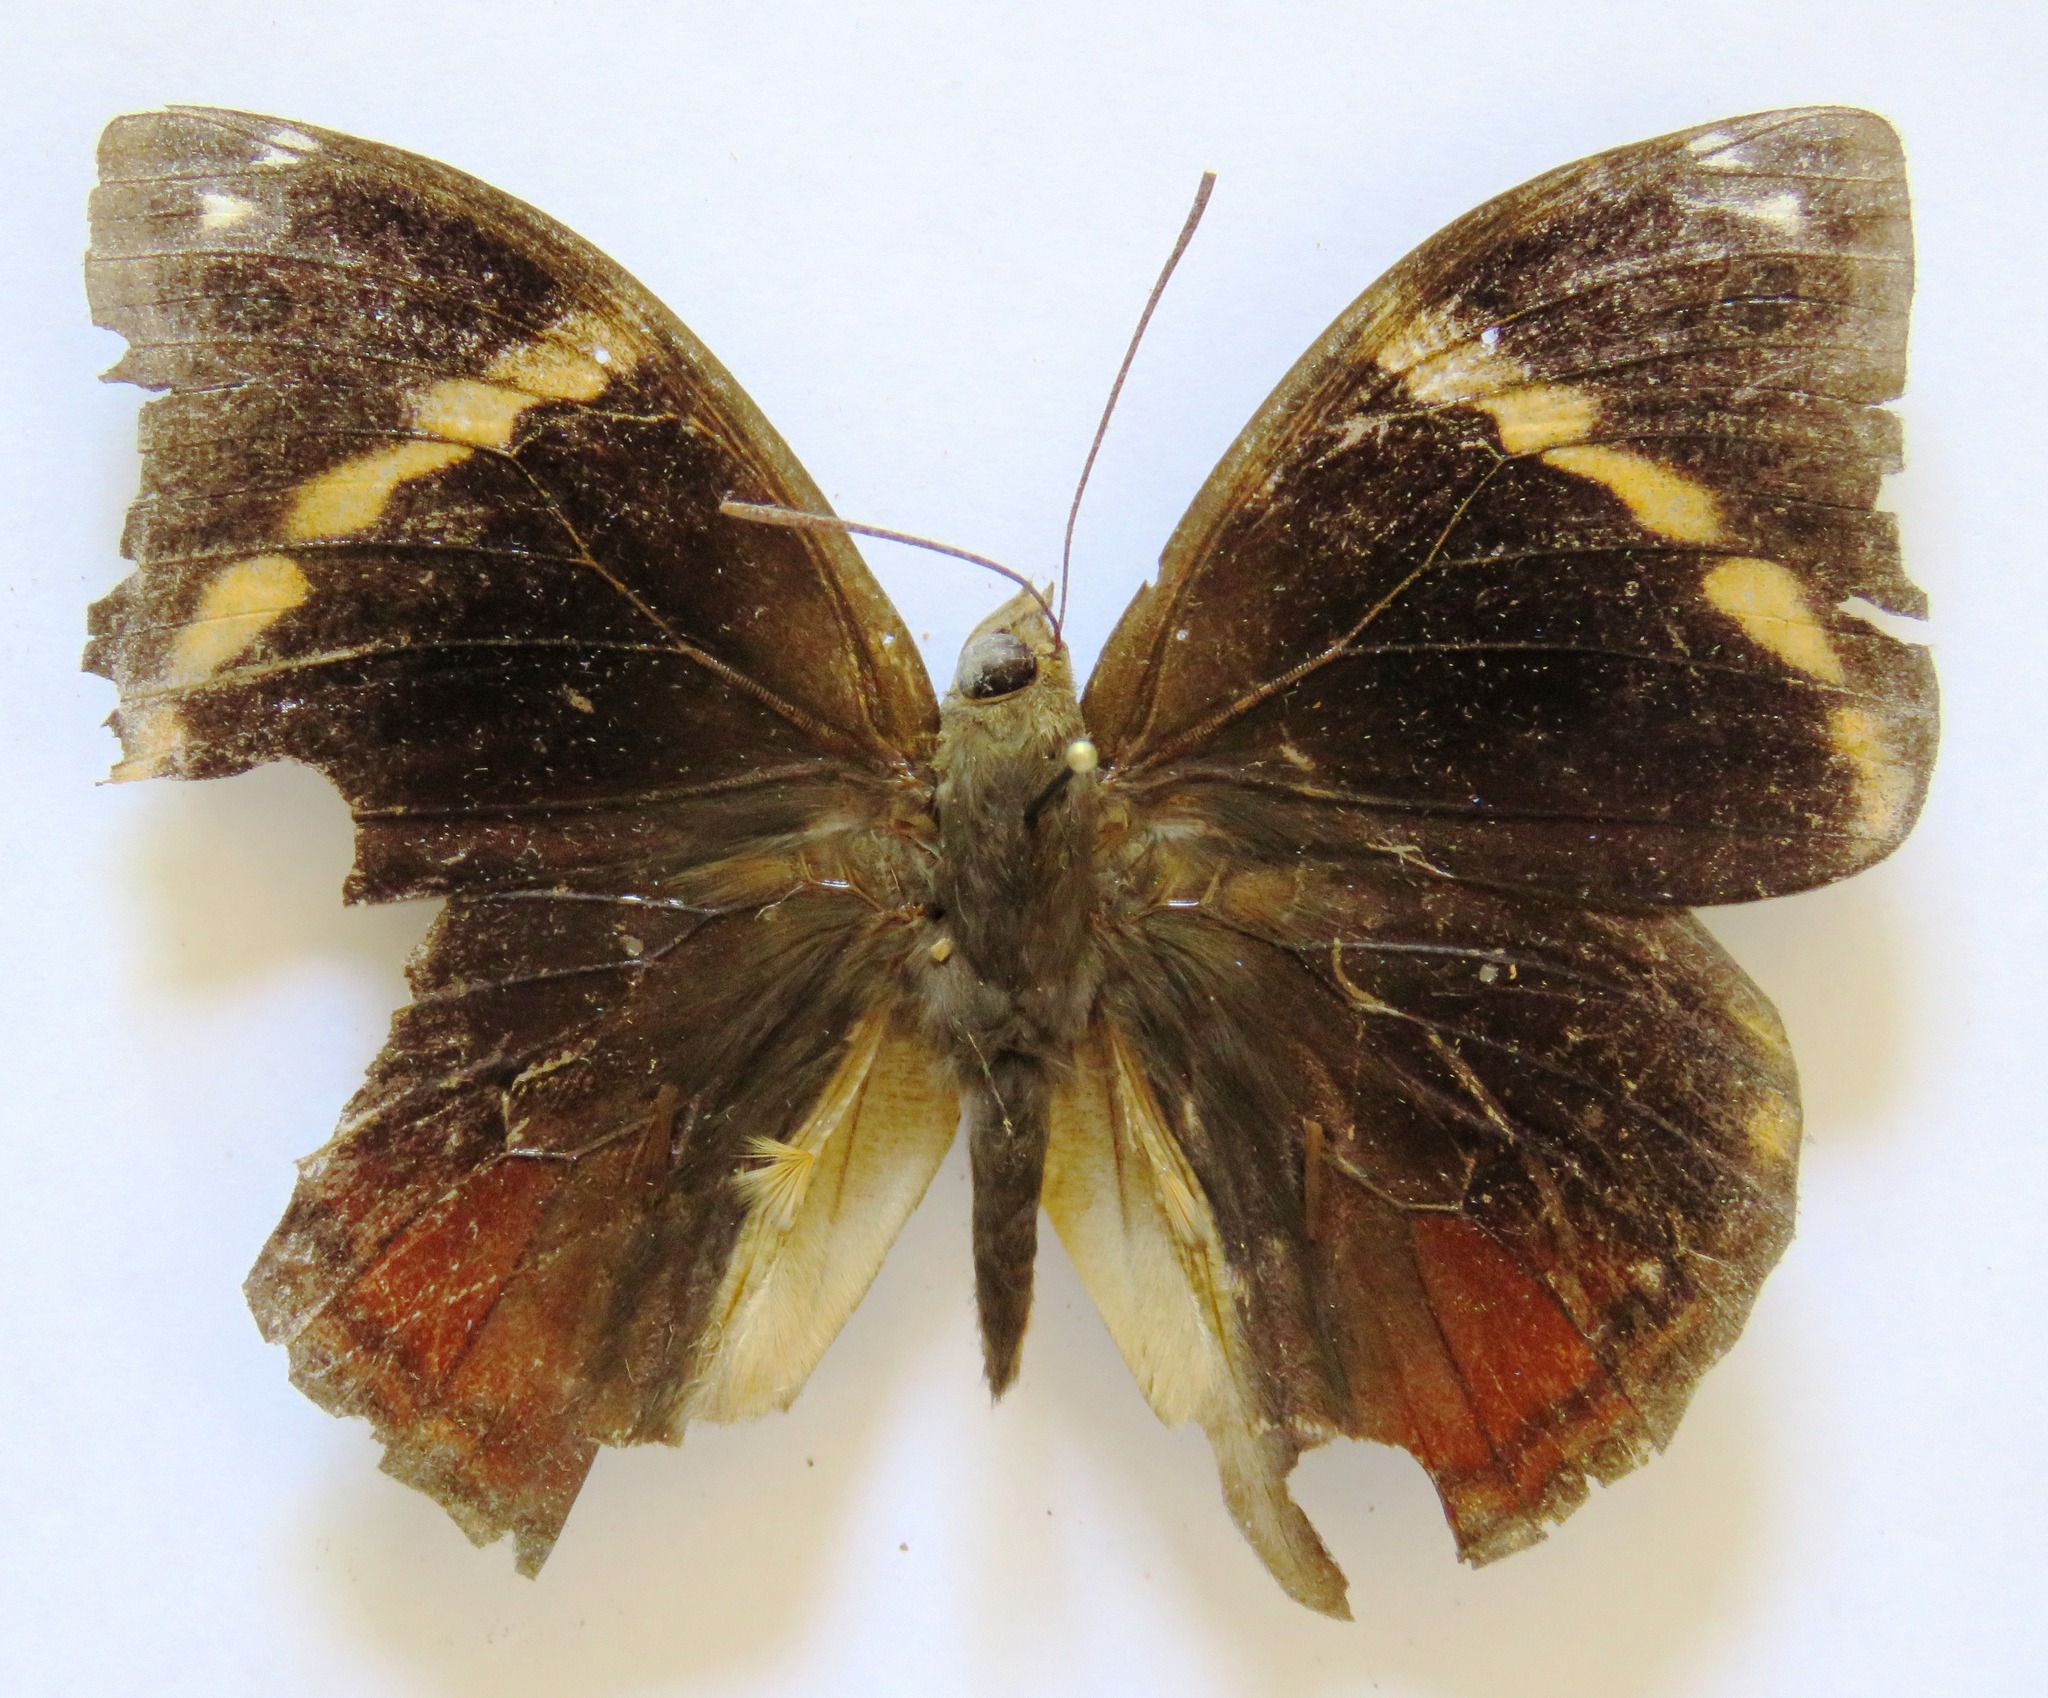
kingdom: Animalia
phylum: Arthropoda
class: Insecta
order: Lepidoptera
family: Nymphalidae
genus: Opsiphanes
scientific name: Opsiphanes cassiae
